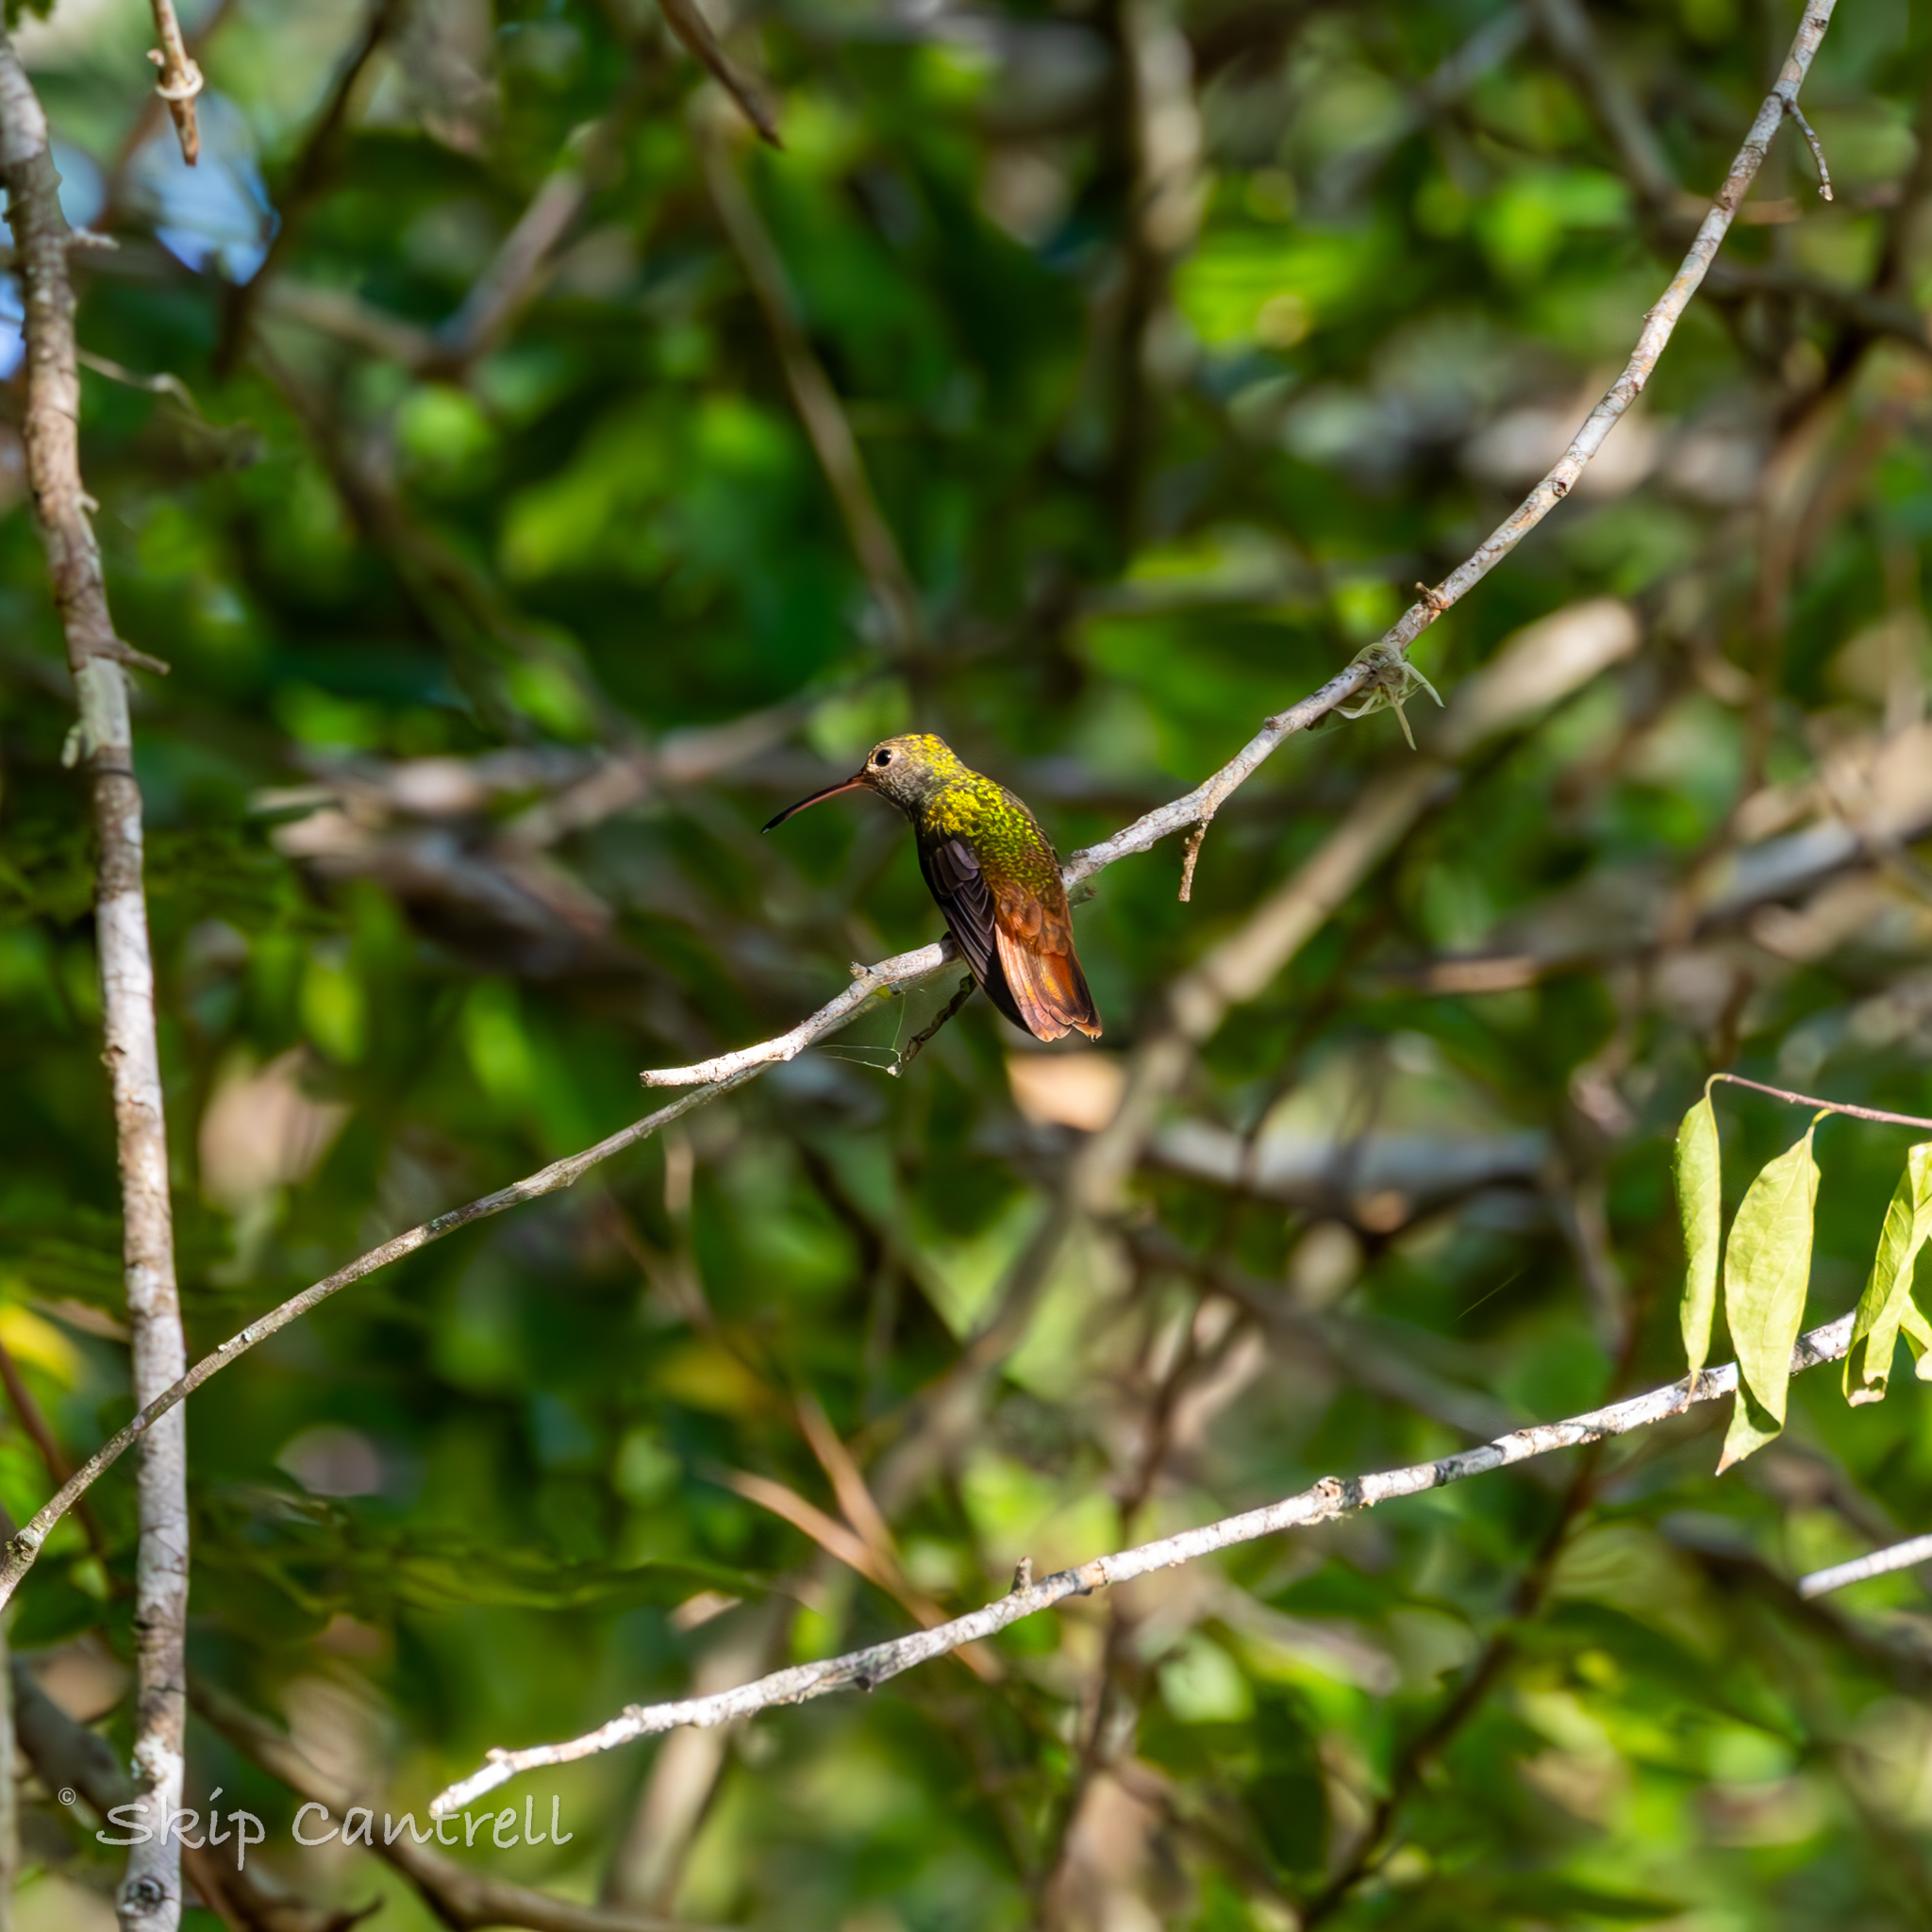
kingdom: Animalia
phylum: Chordata
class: Aves
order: Apodiformes
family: Trochilidae
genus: Amazilia
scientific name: Amazilia yucatanensis
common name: Buff-bellied hummingbird
